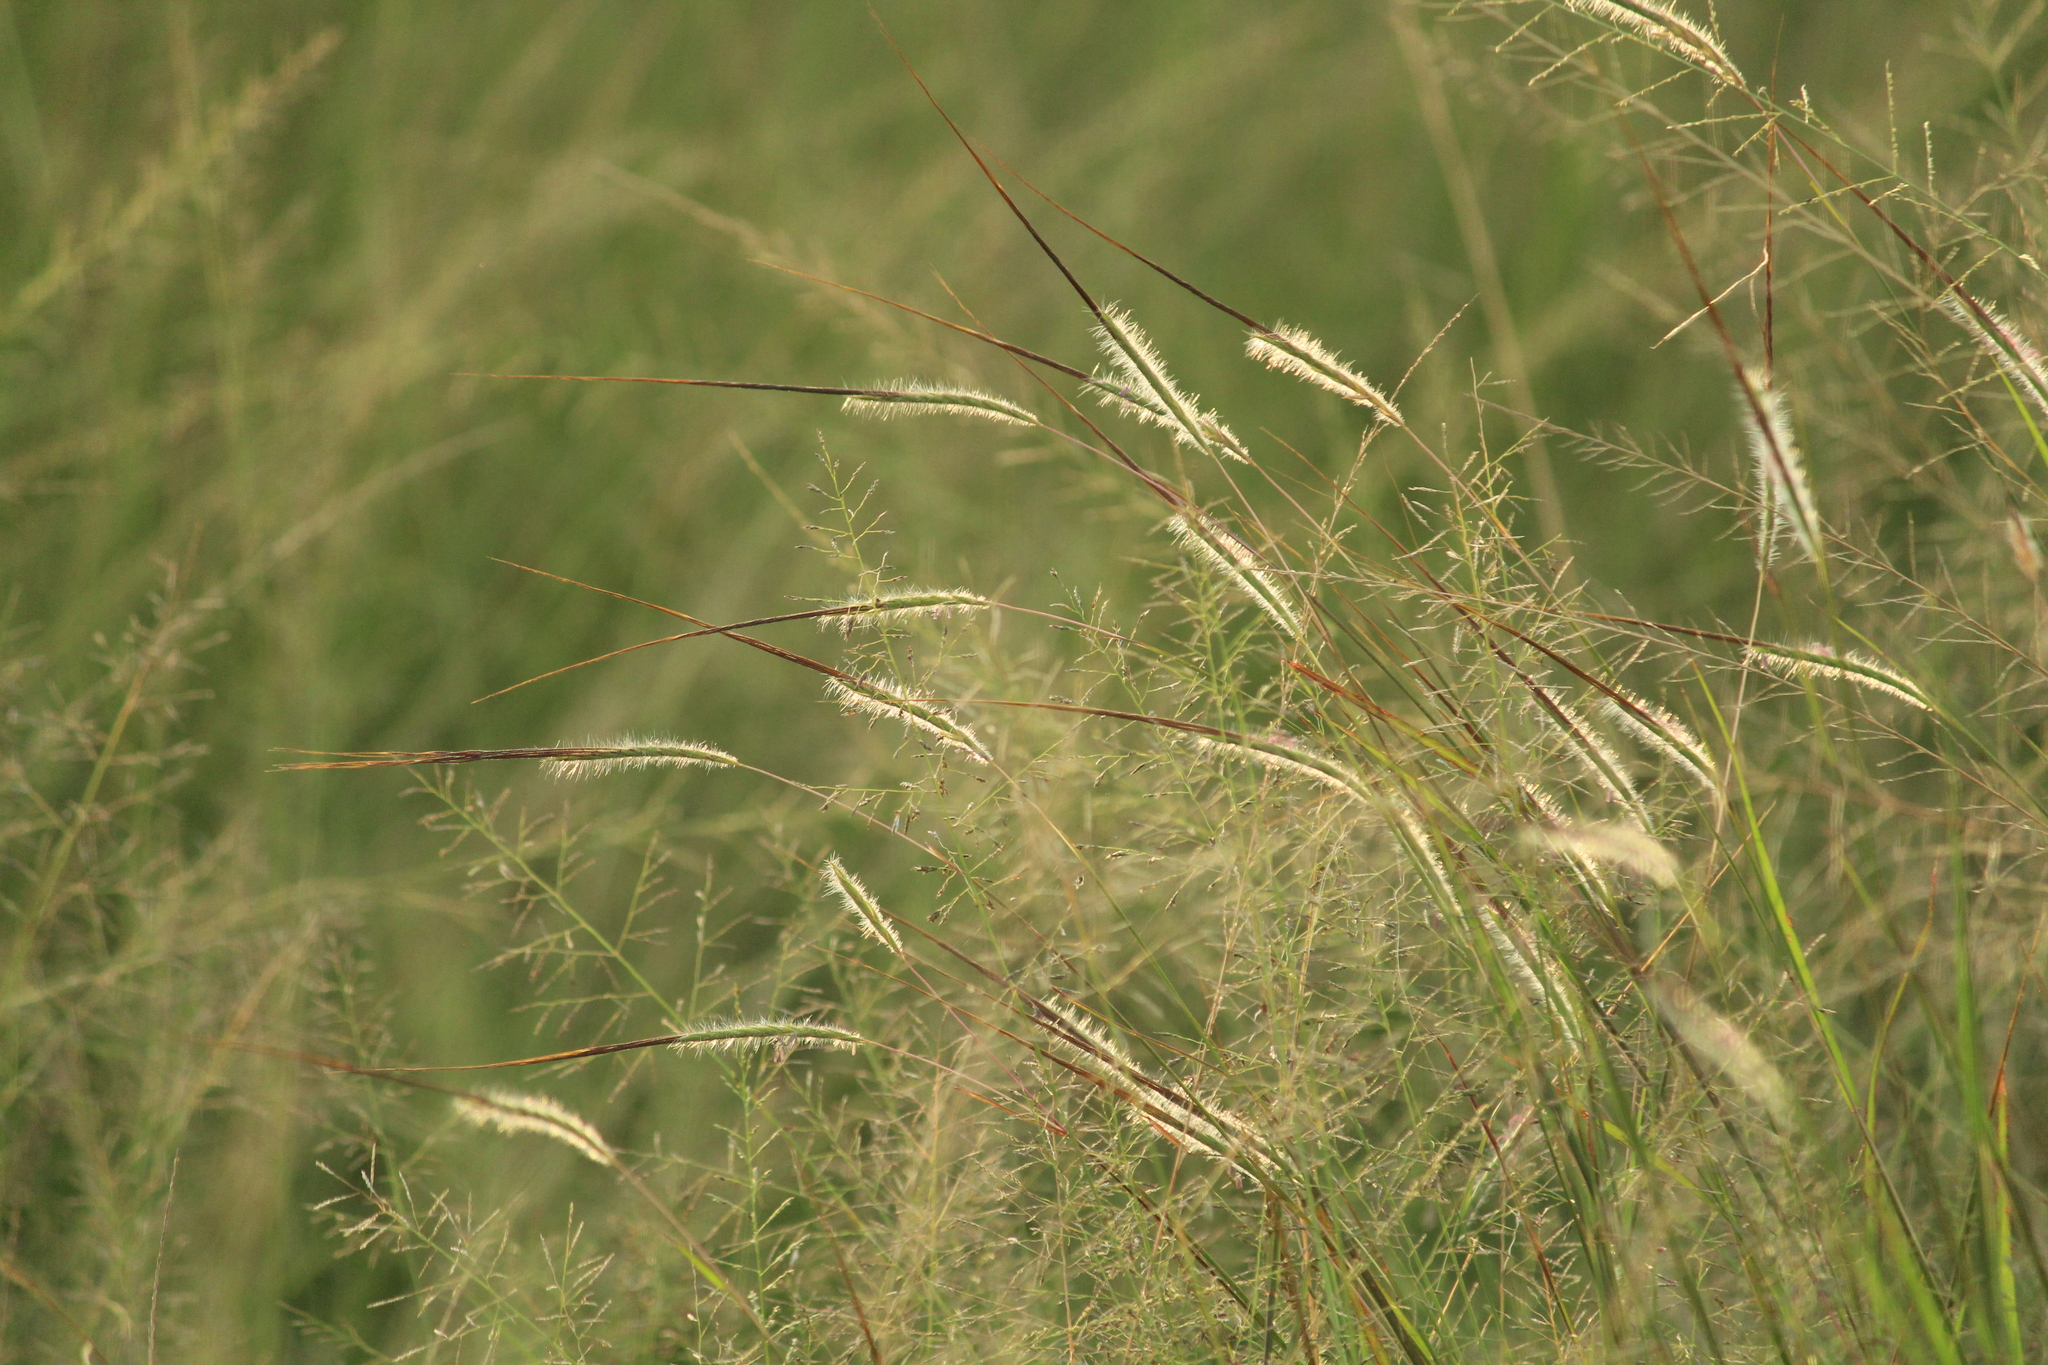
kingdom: Plantae
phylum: Tracheophyta
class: Liliopsida
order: Poales
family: Poaceae
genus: Heteropogon
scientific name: Heteropogon contortus
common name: Tanglehead
